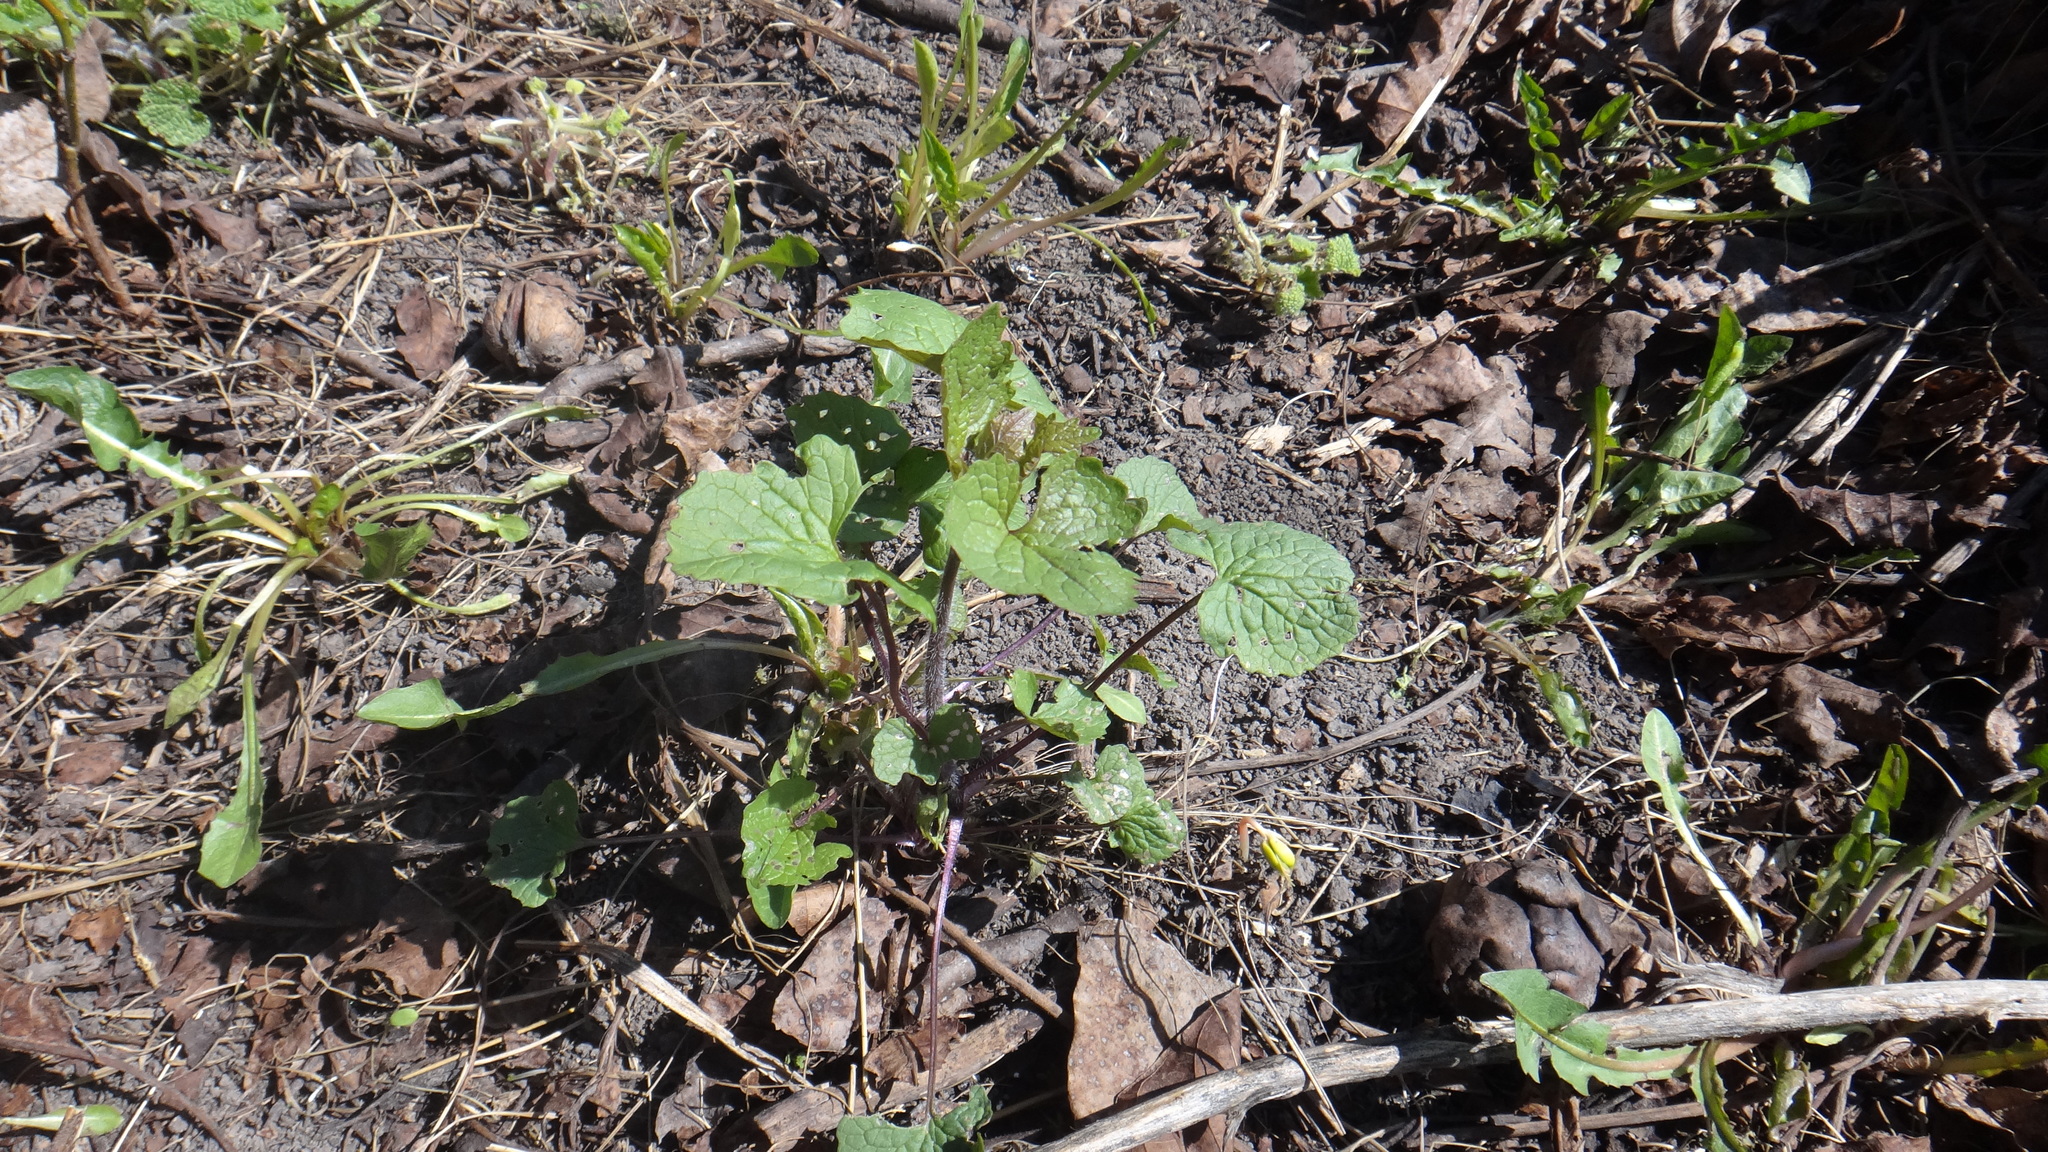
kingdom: Plantae
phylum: Tracheophyta
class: Magnoliopsida
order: Brassicales
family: Brassicaceae
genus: Alliaria
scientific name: Alliaria petiolata
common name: Garlic mustard
